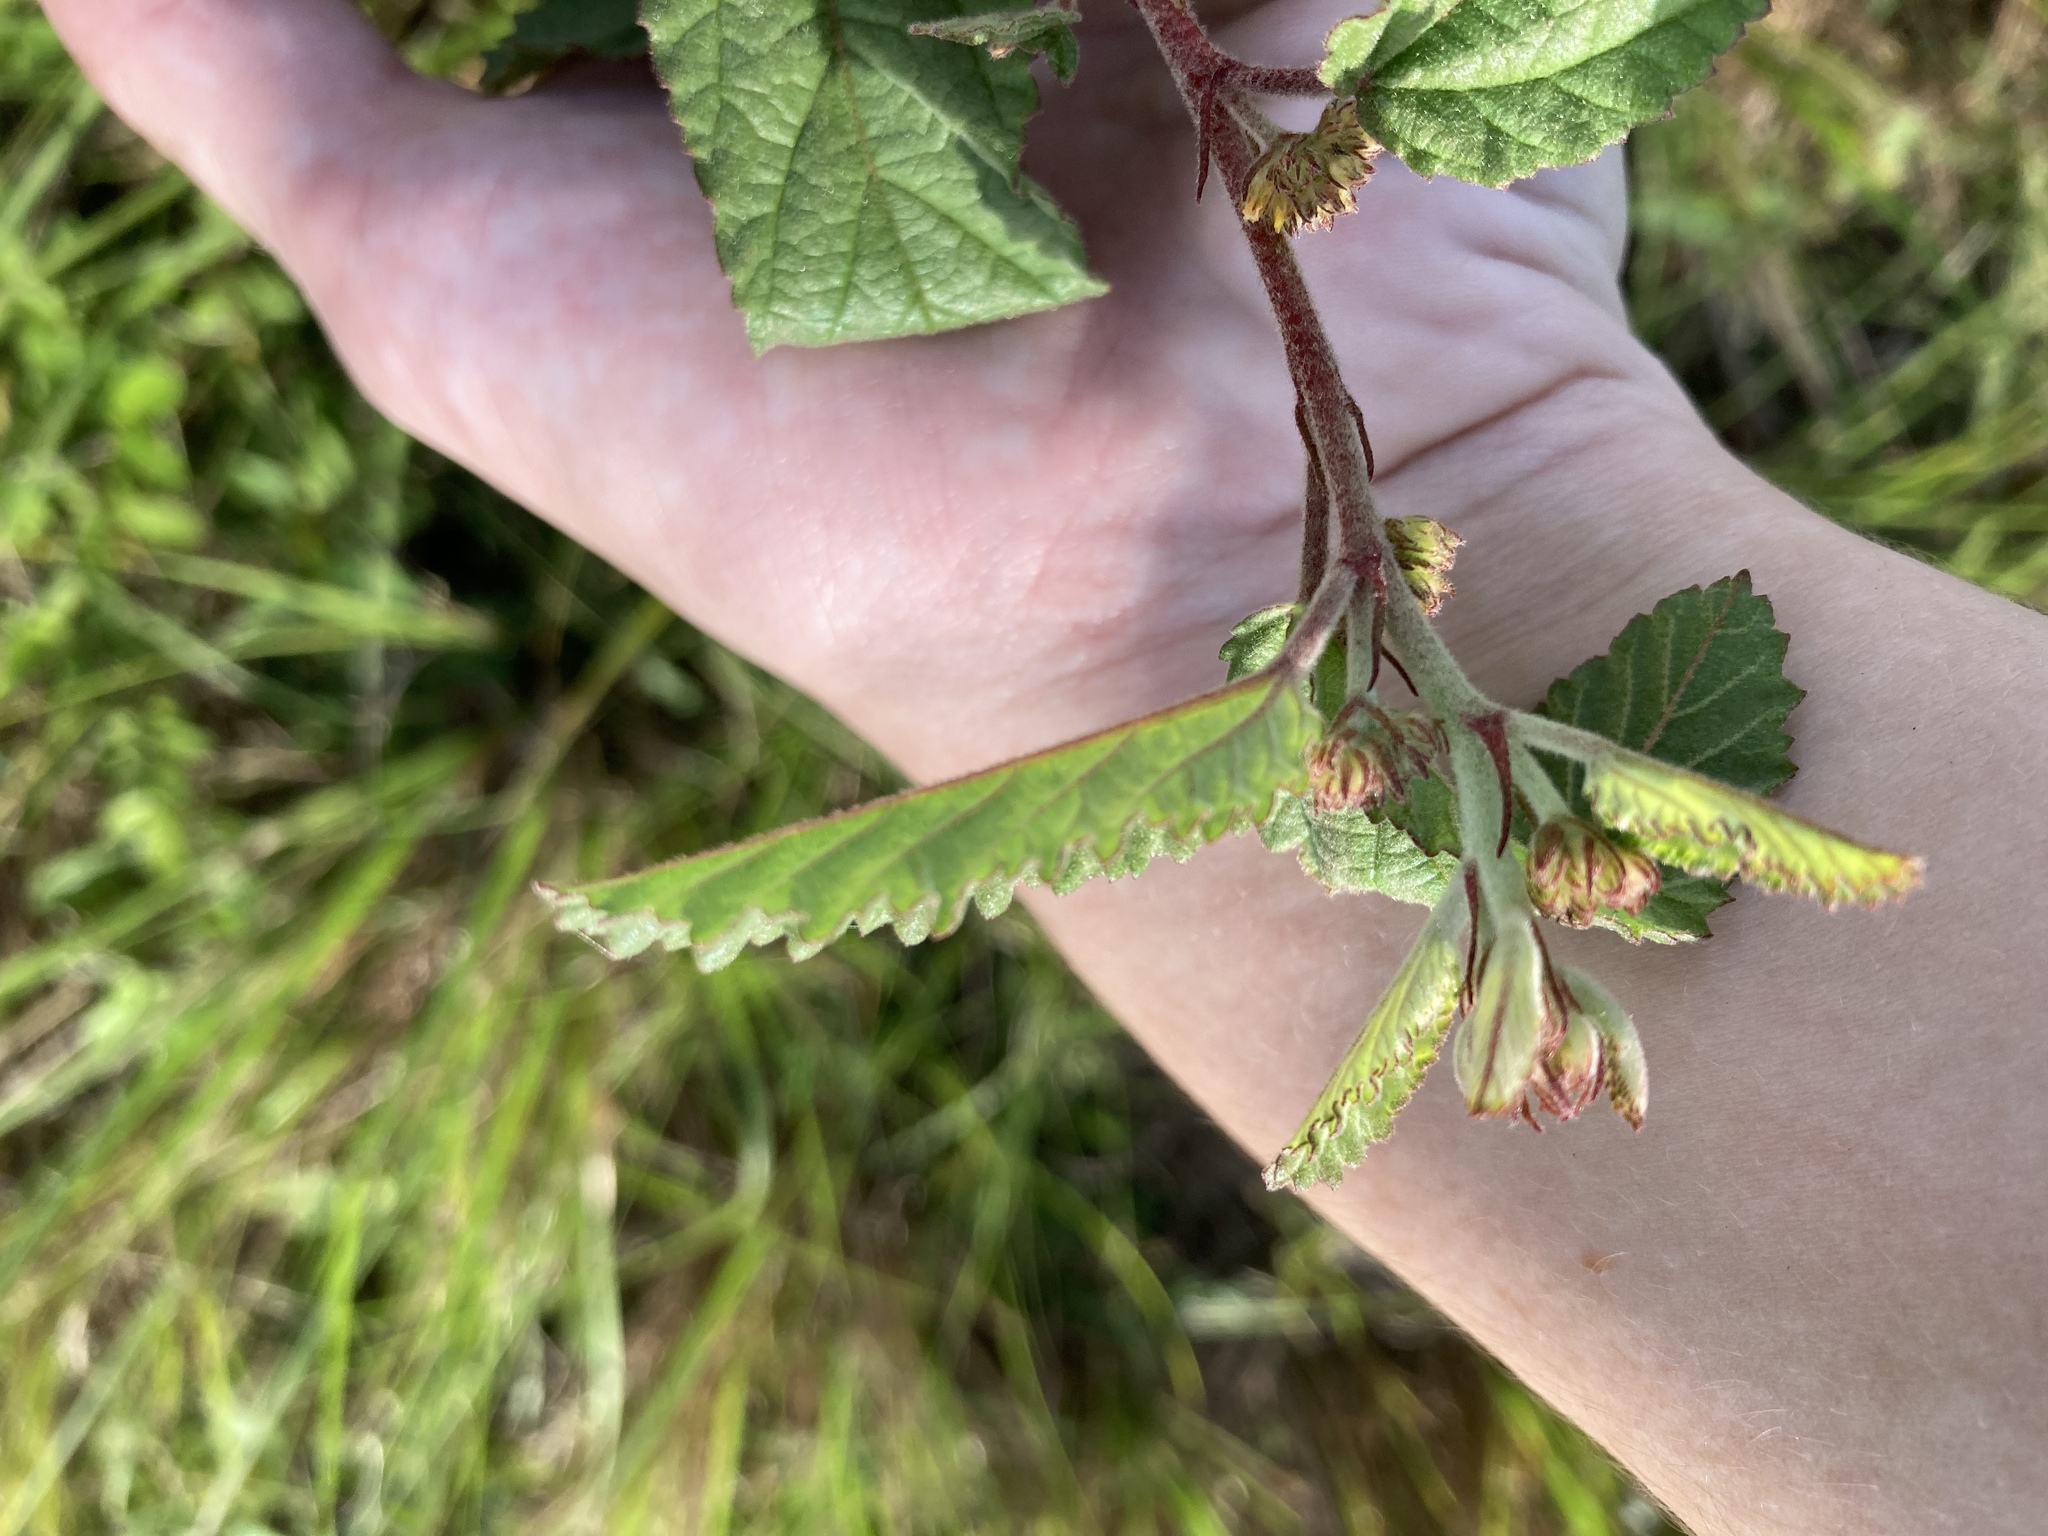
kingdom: Plantae
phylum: Tracheophyta
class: Magnoliopsida
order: Malvales
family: Malvaceae
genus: Waltheria
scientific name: Waltheria indica
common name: Leather-coat
